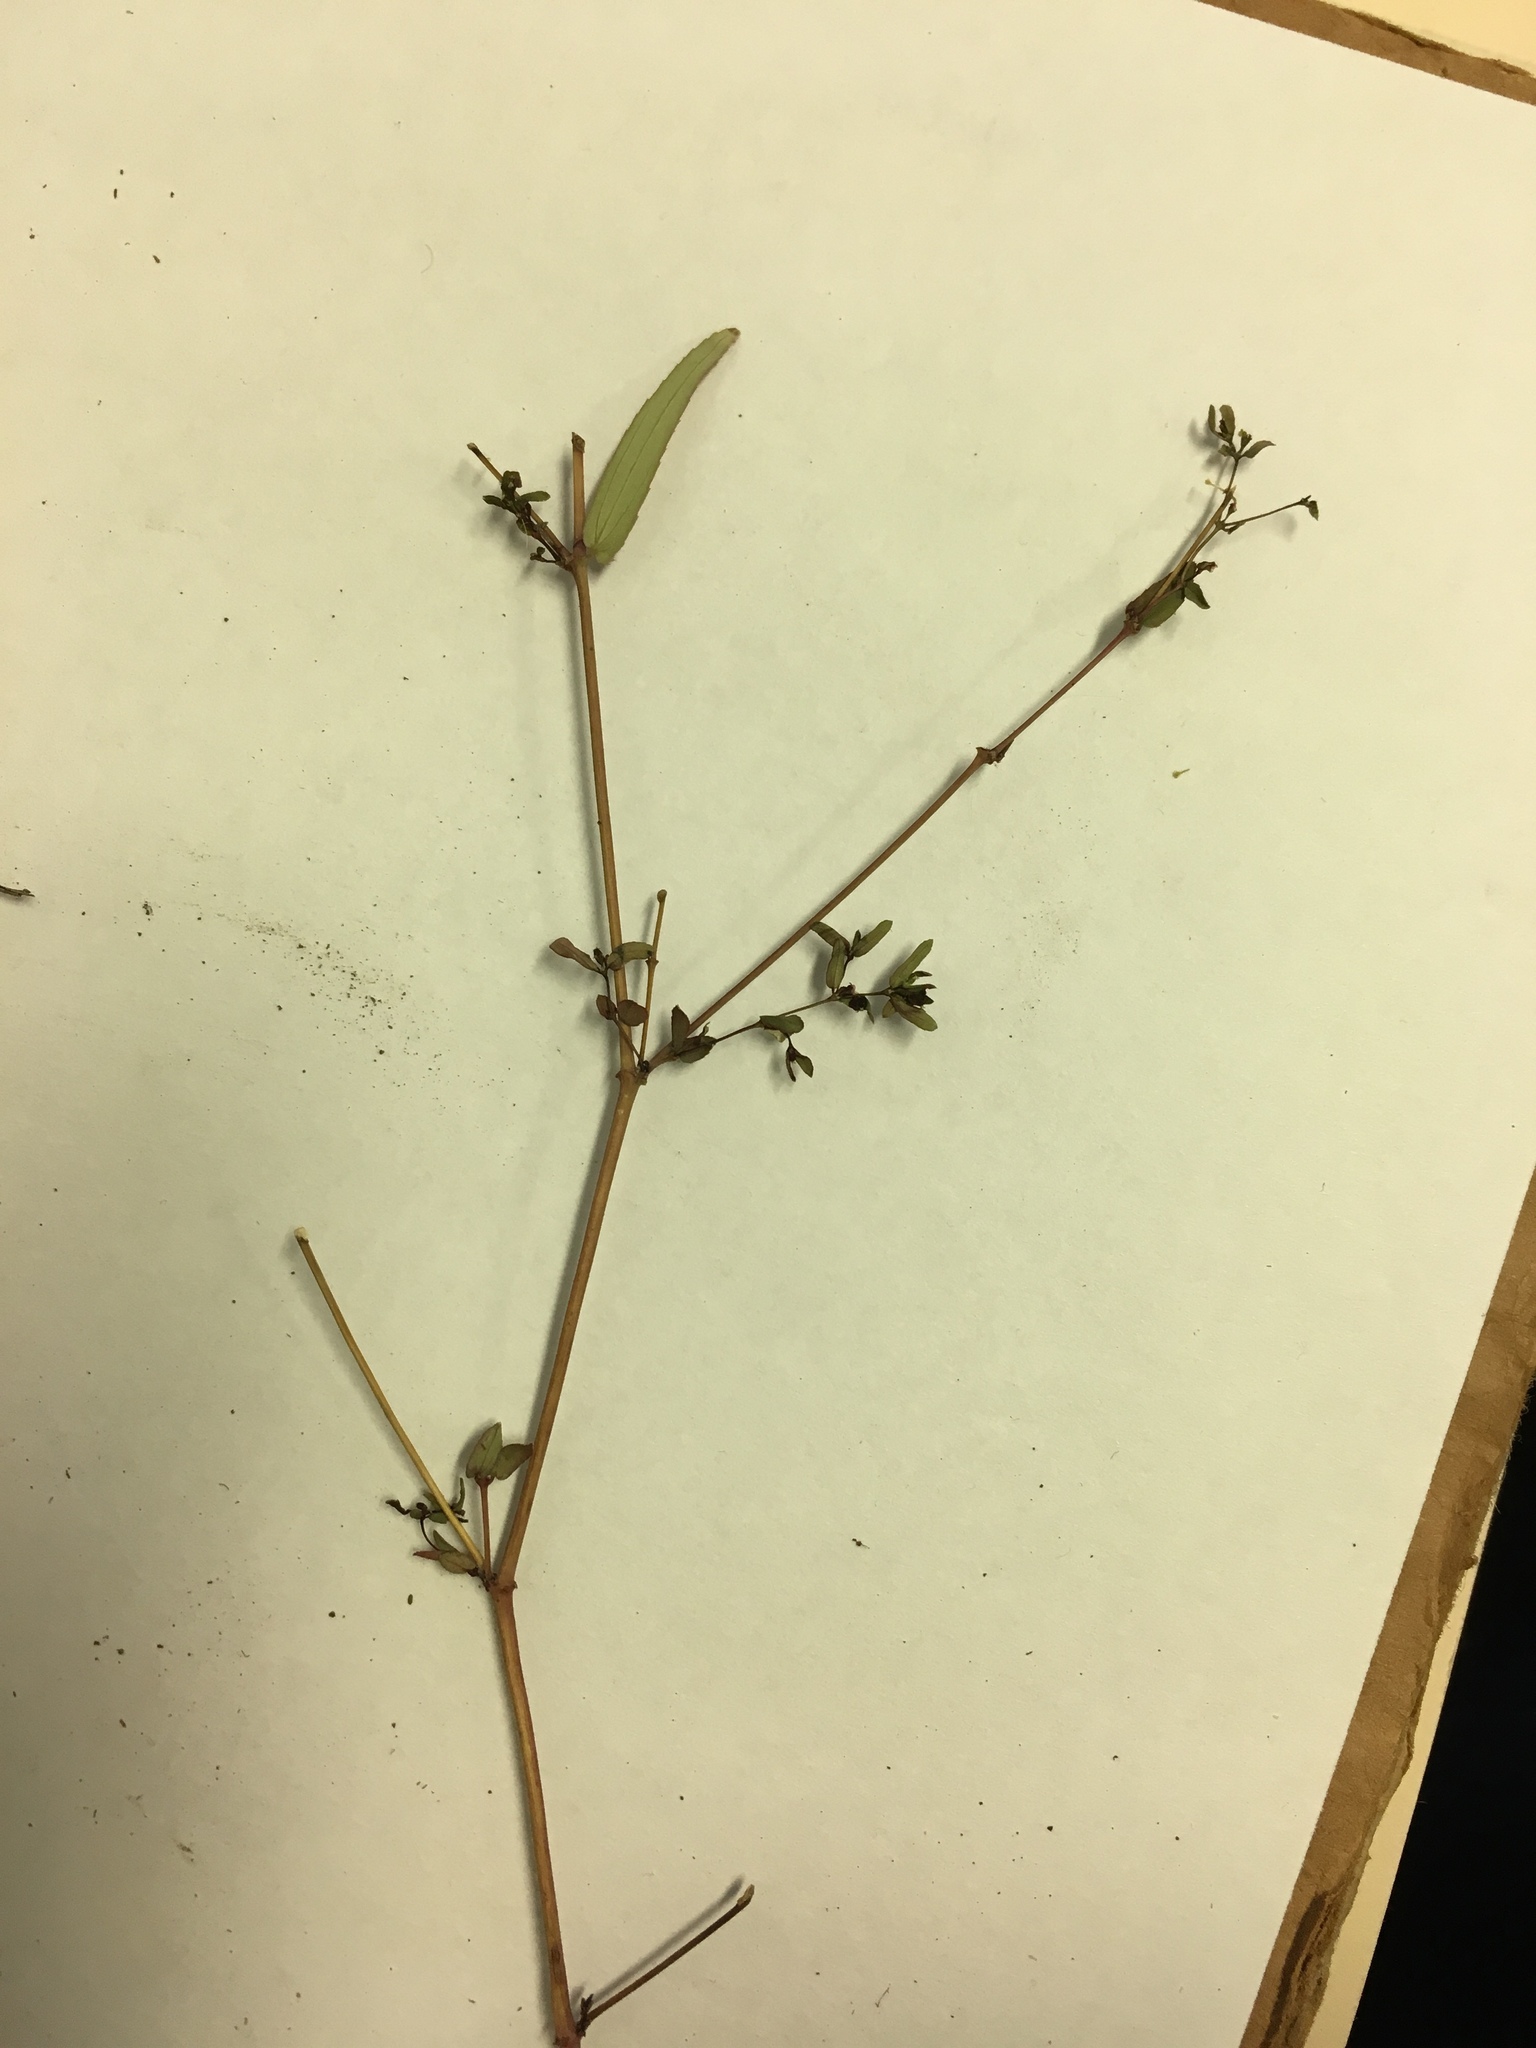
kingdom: Plantae
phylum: Tracheophyta
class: Magnoliopsida
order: Malpighiales
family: Euphorbiaceae
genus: Euphorbia
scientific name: Euphorbia hyssopifolia
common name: Hyssopleaf sandmat
